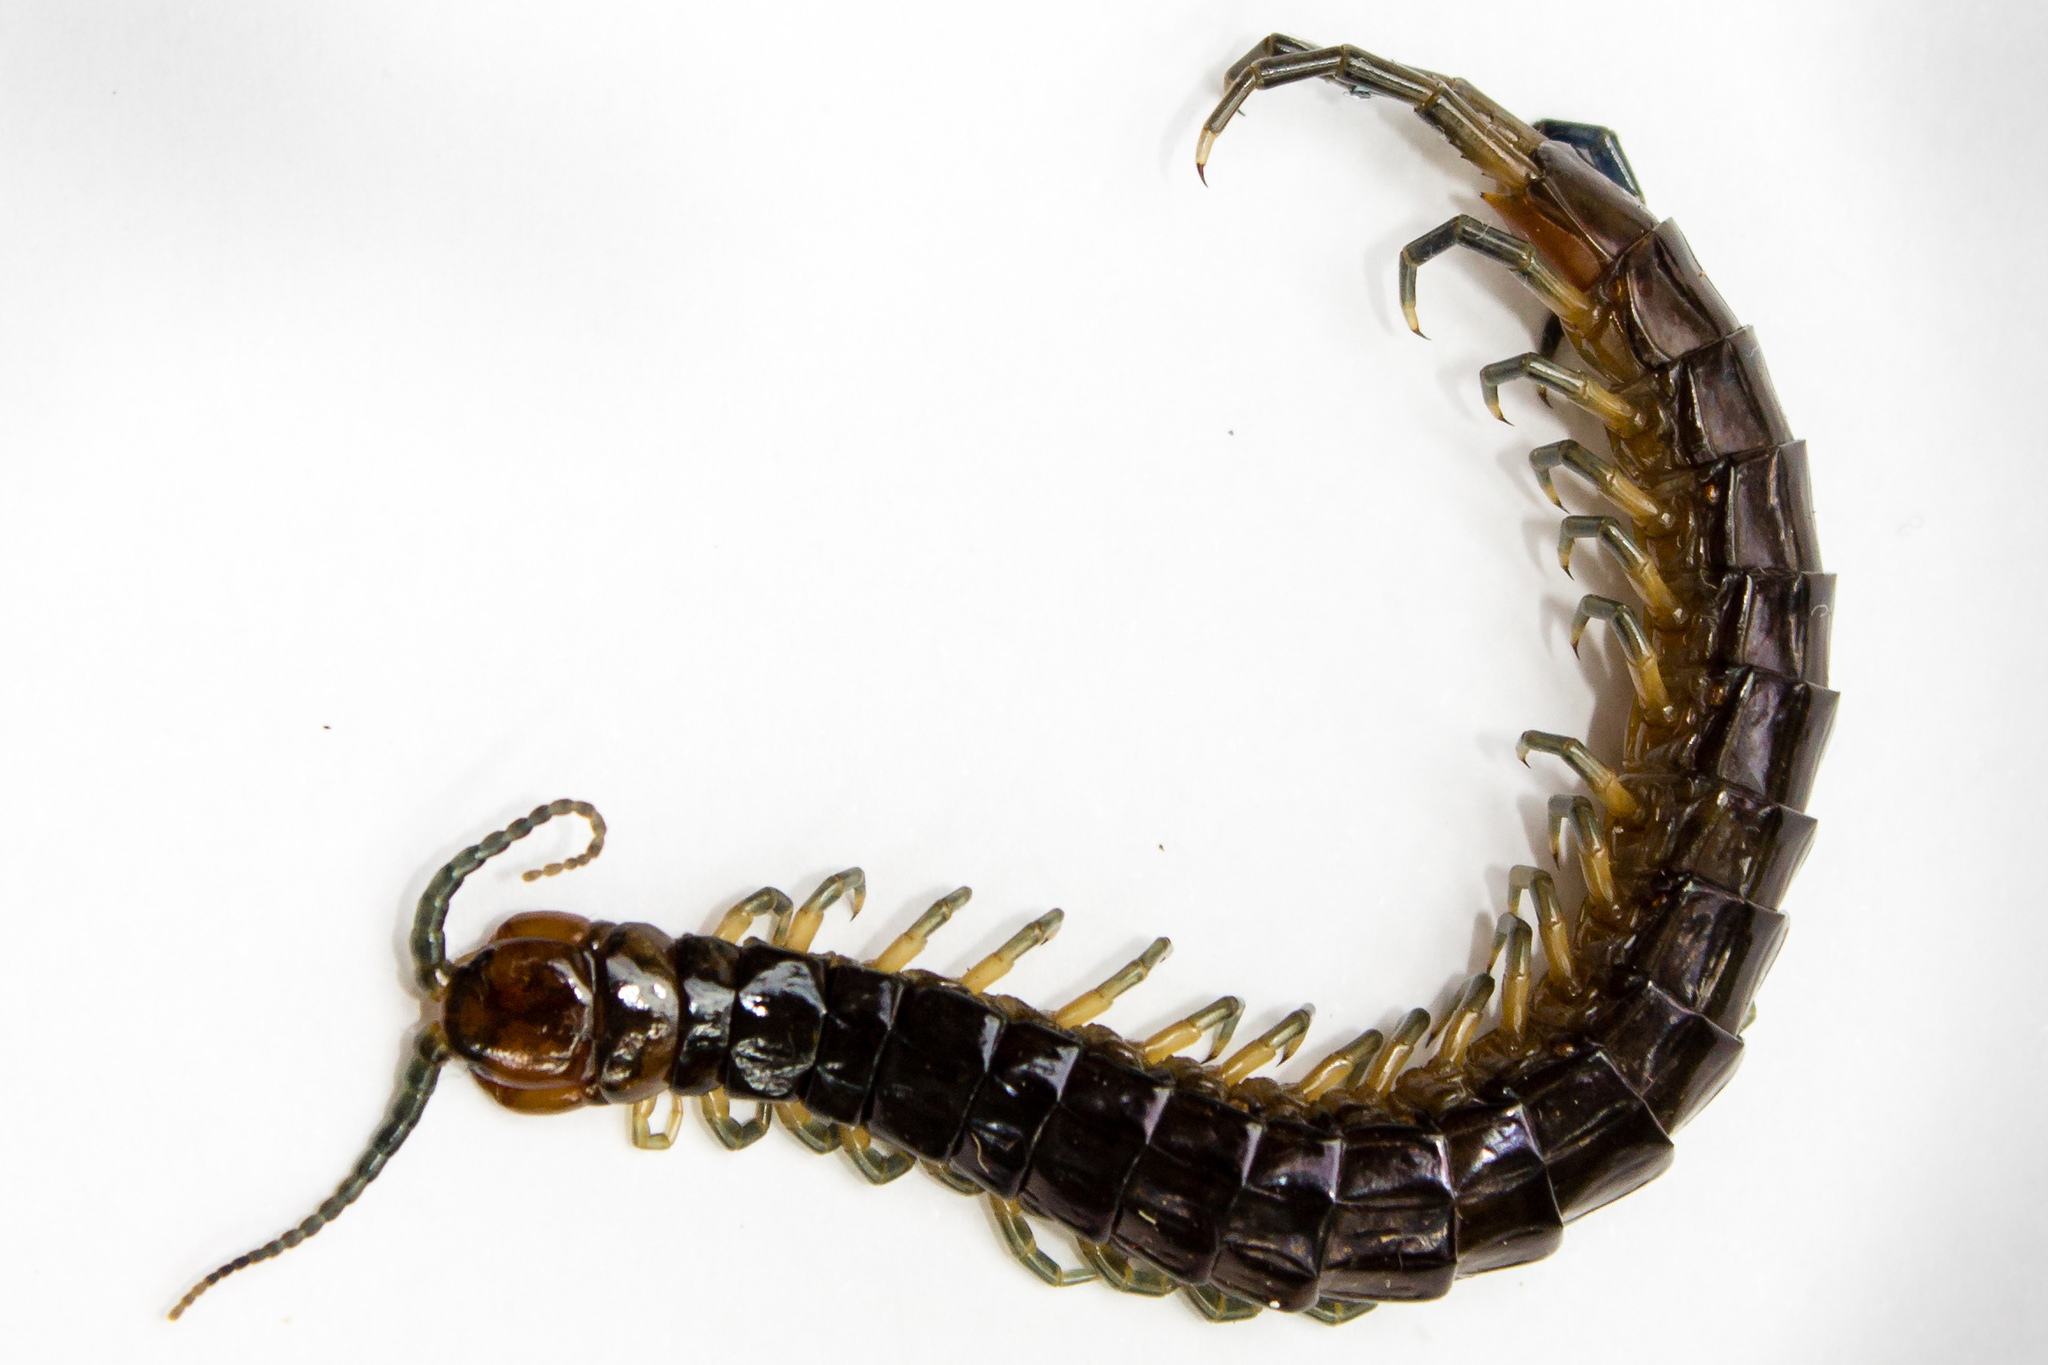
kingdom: Animalia
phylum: Arthropoda
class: Chilopoda
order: Scolopendromorpha
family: Scolopendridae
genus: Cormocephalus
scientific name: Cormocephalus rubriceps
